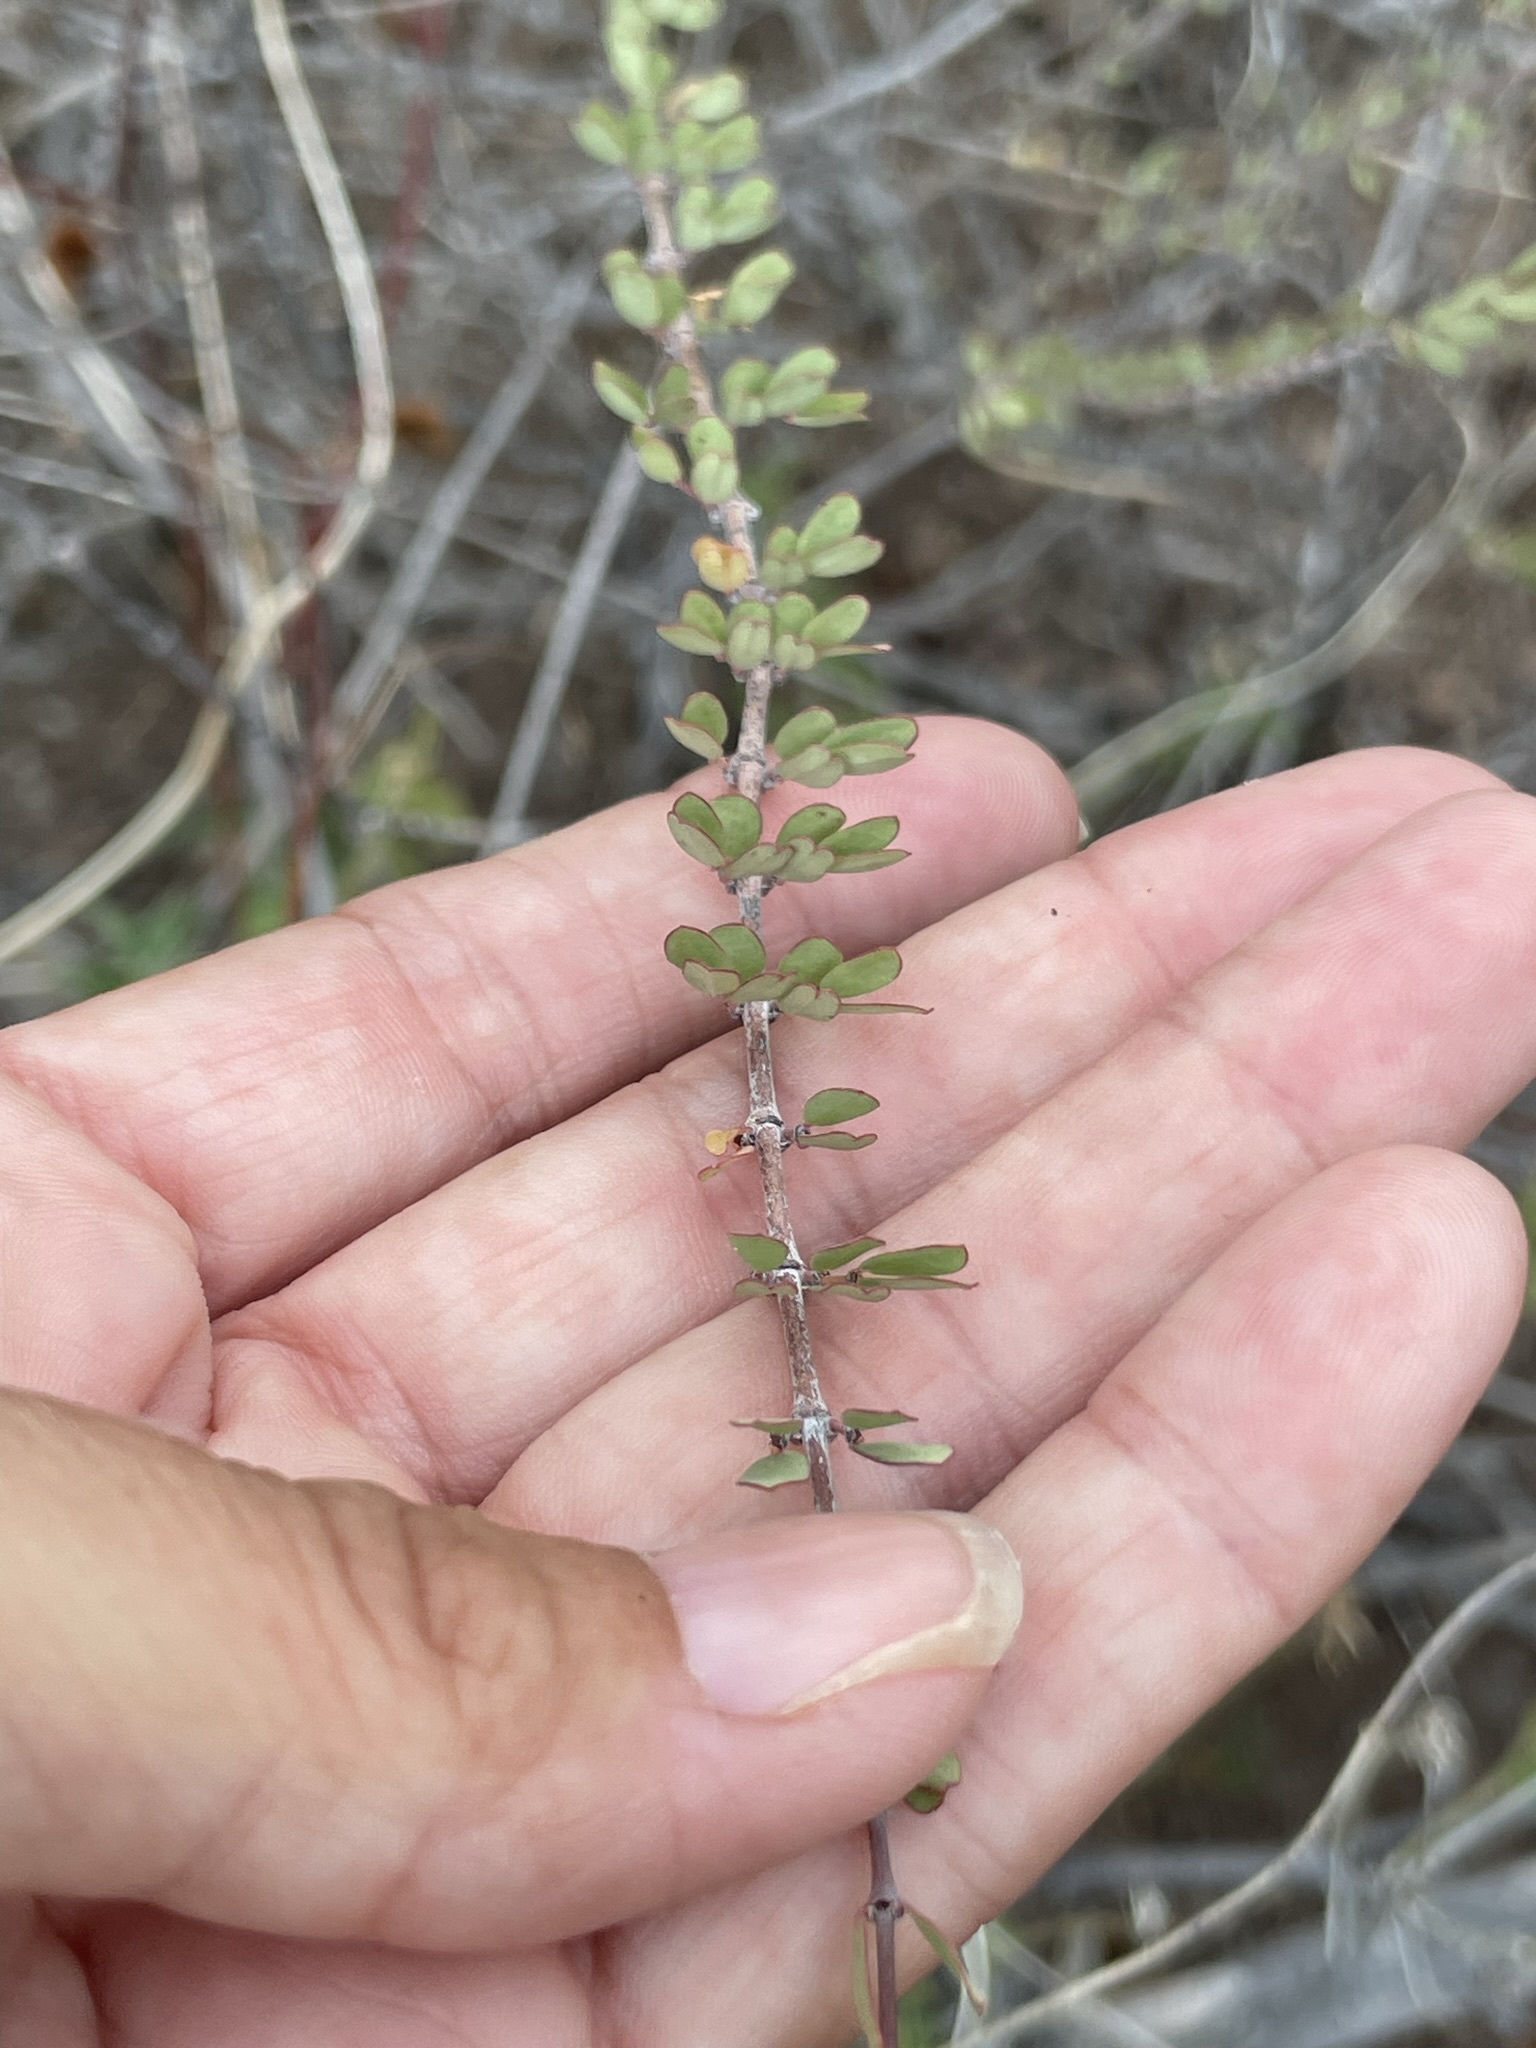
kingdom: Plantae
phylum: Tracheophyta
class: Magnoliopsida
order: Malpighiales
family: Euphorbiaceae
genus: Euphorbia
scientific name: Euphorbia magdalenae
